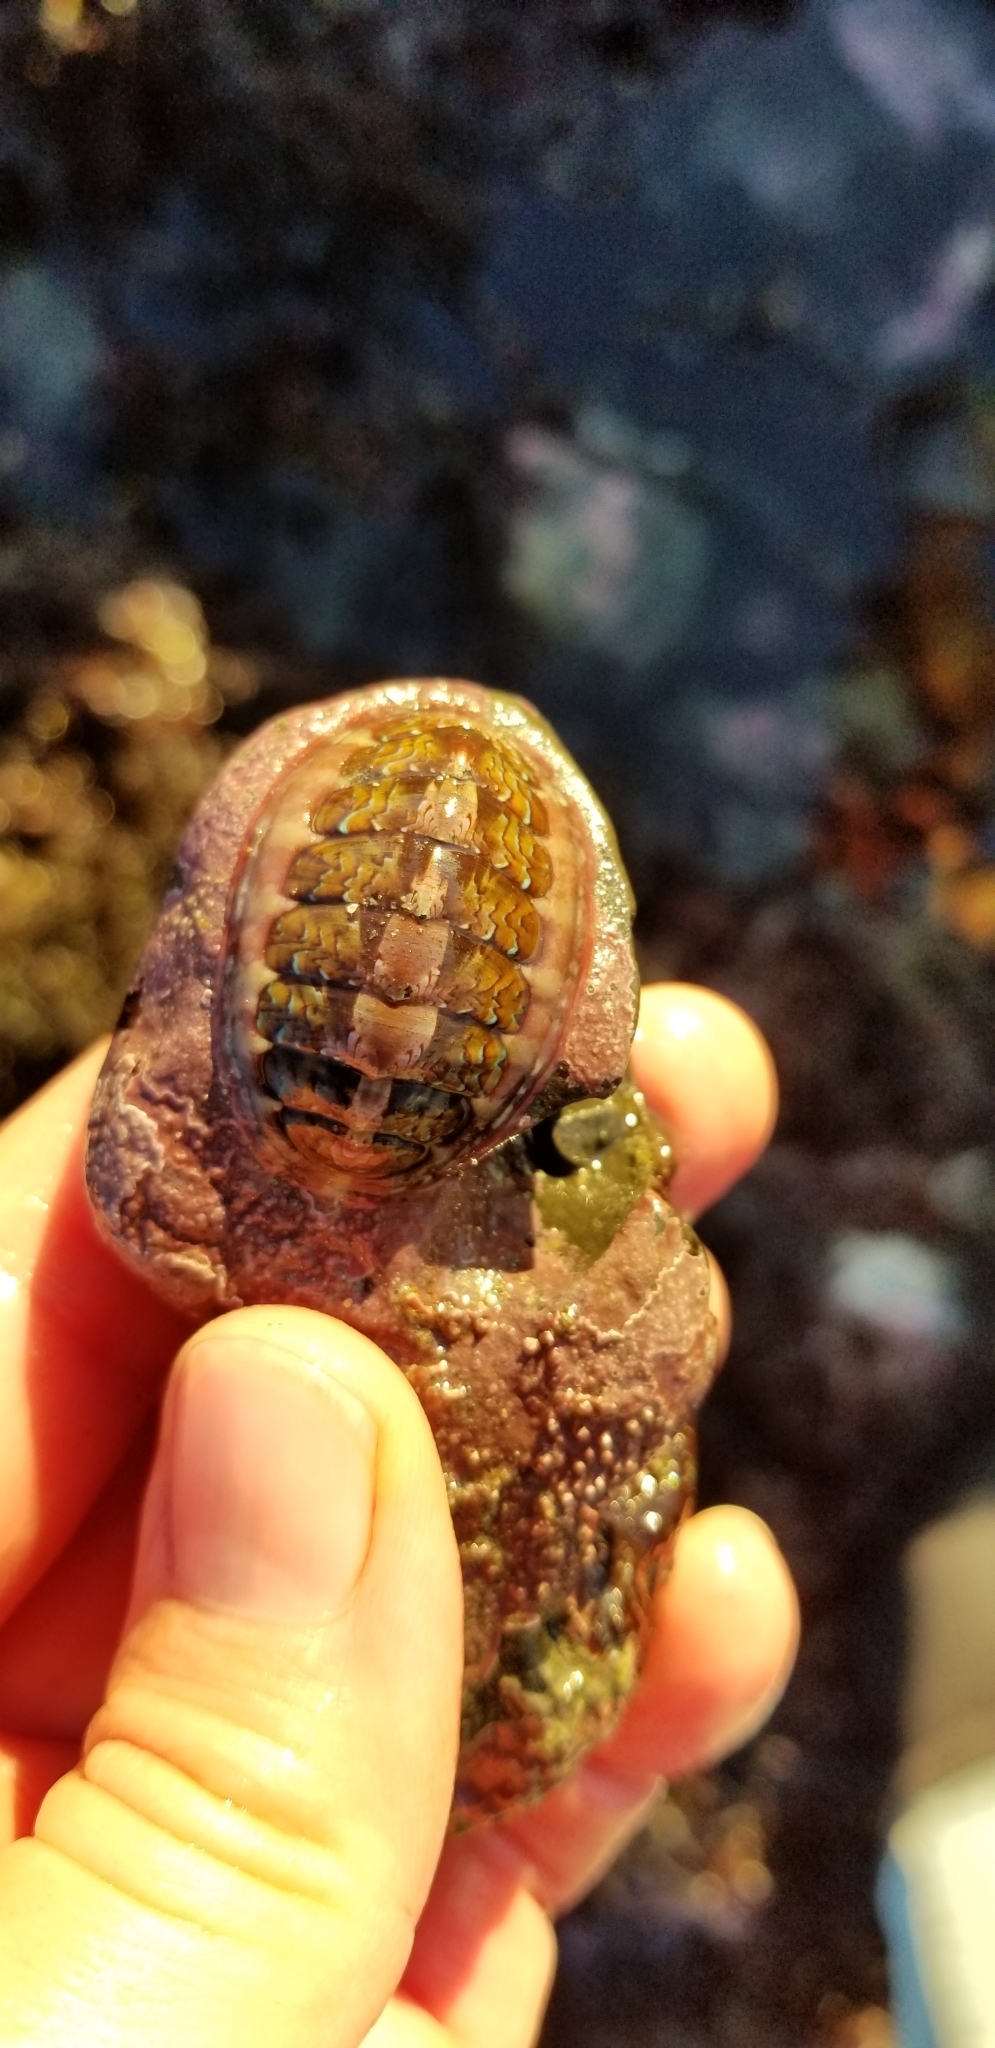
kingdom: Animalia
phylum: Mollusca
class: Polyplacophora
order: Chitonida
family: Tonicellidae
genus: Tonicella
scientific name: Tonicella lokii
